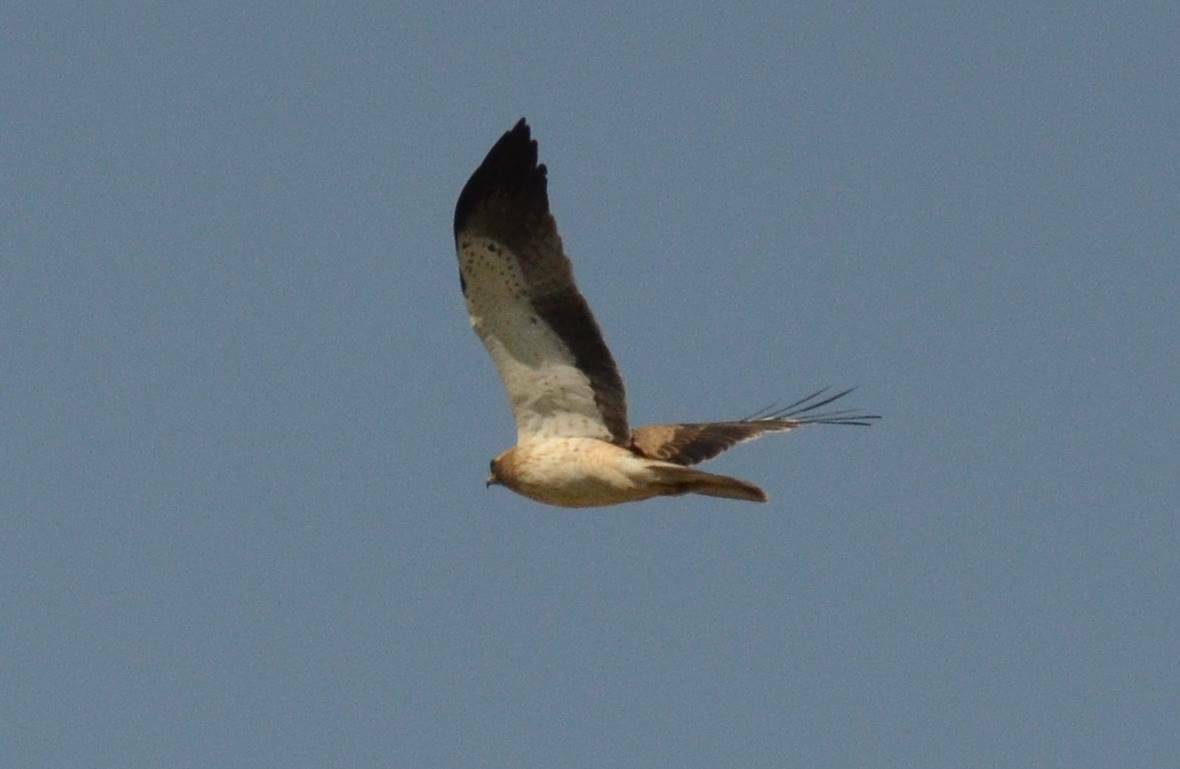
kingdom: Animalia
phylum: Chordata
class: Aves
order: Accipitriformes
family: Accipitridae
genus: Hieraaetus
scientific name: Hieraaetus pennatus
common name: Booted eagle
